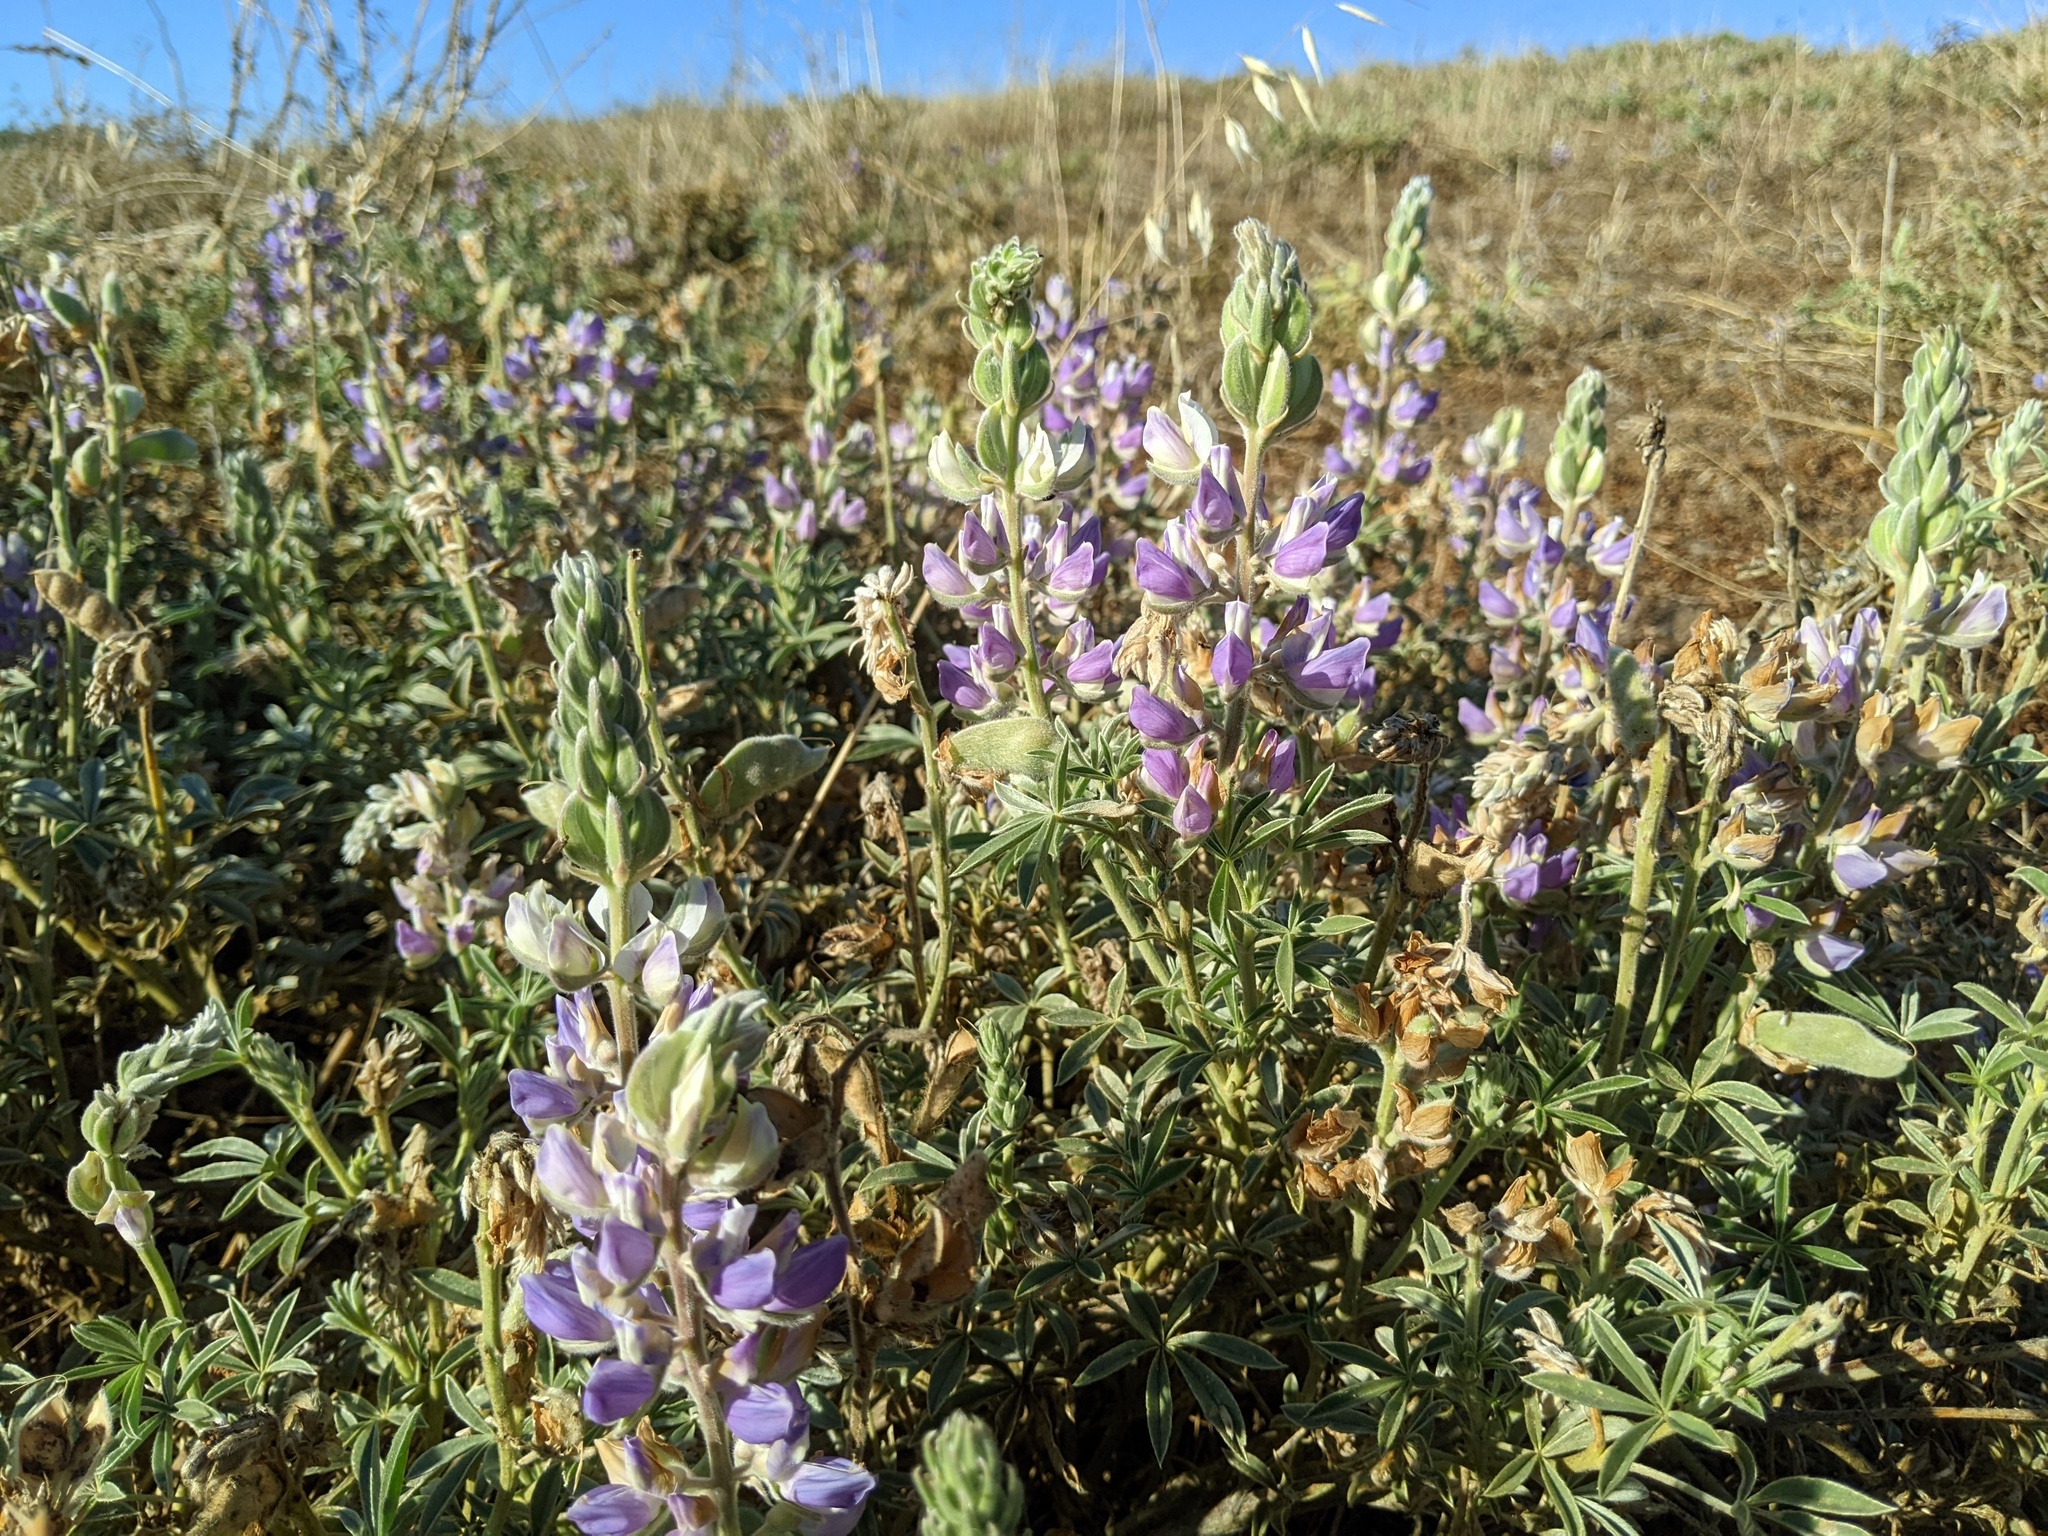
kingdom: Plantae
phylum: Tracheophyta
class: Magnoliopsida
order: Fabales
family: Fabaceae
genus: Lupinus
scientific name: Lupinus formosus
